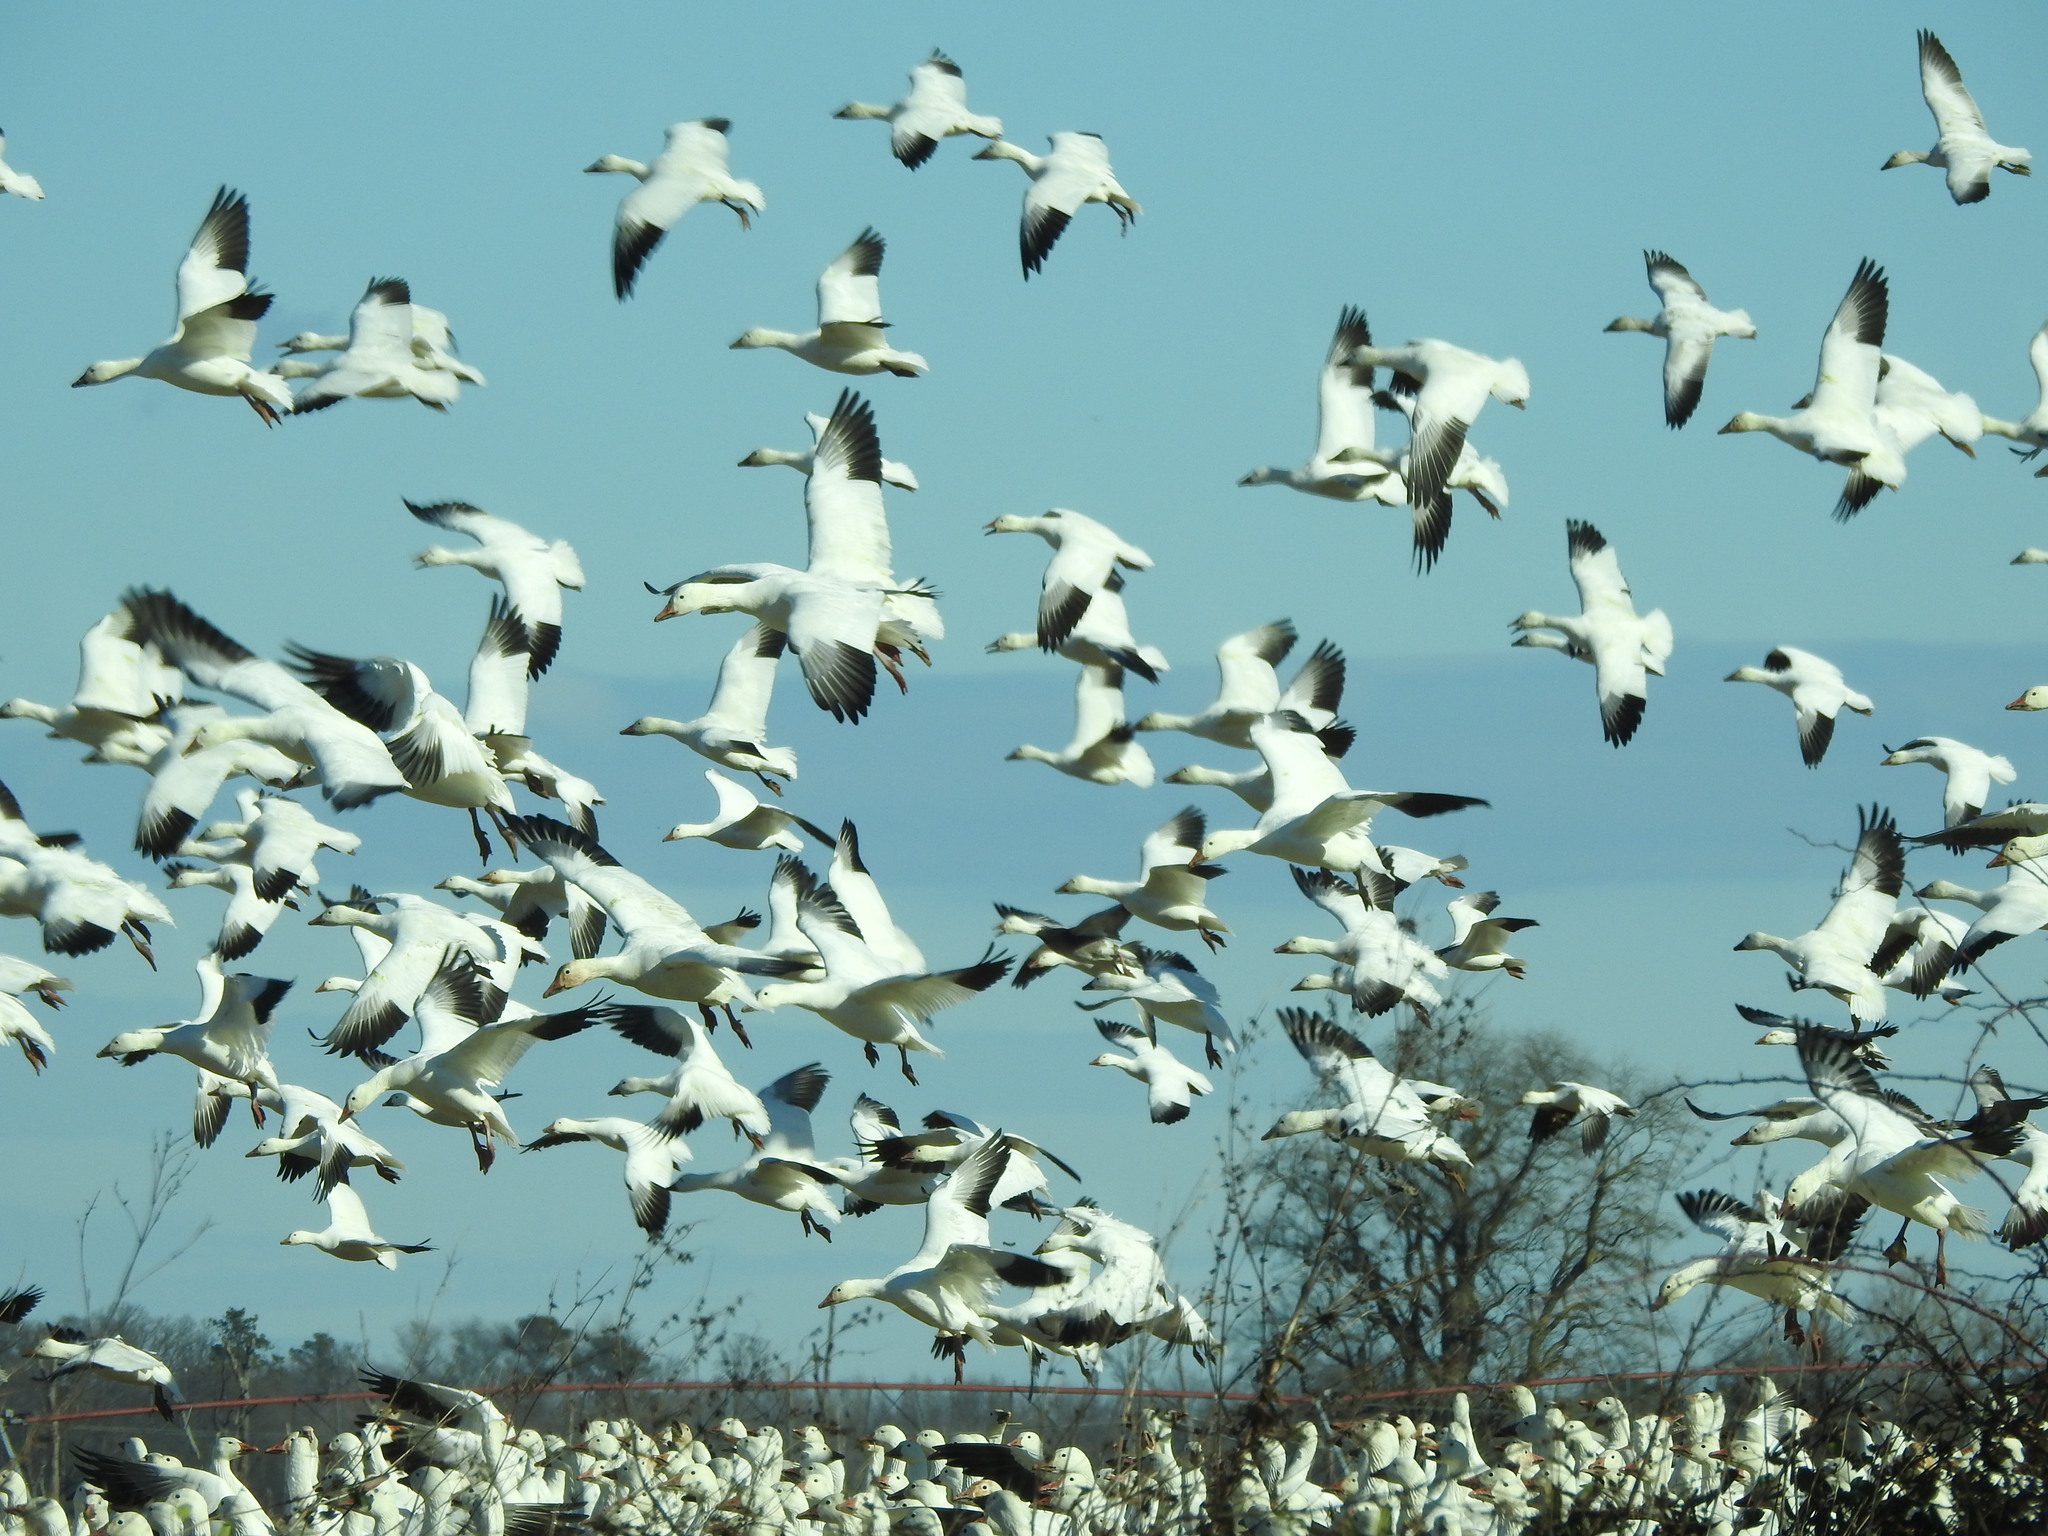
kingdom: Animalia
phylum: Chordata
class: Aves
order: Anseriformes
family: Anatidae
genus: Anser
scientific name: Anser caerulescens
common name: Snow goose
